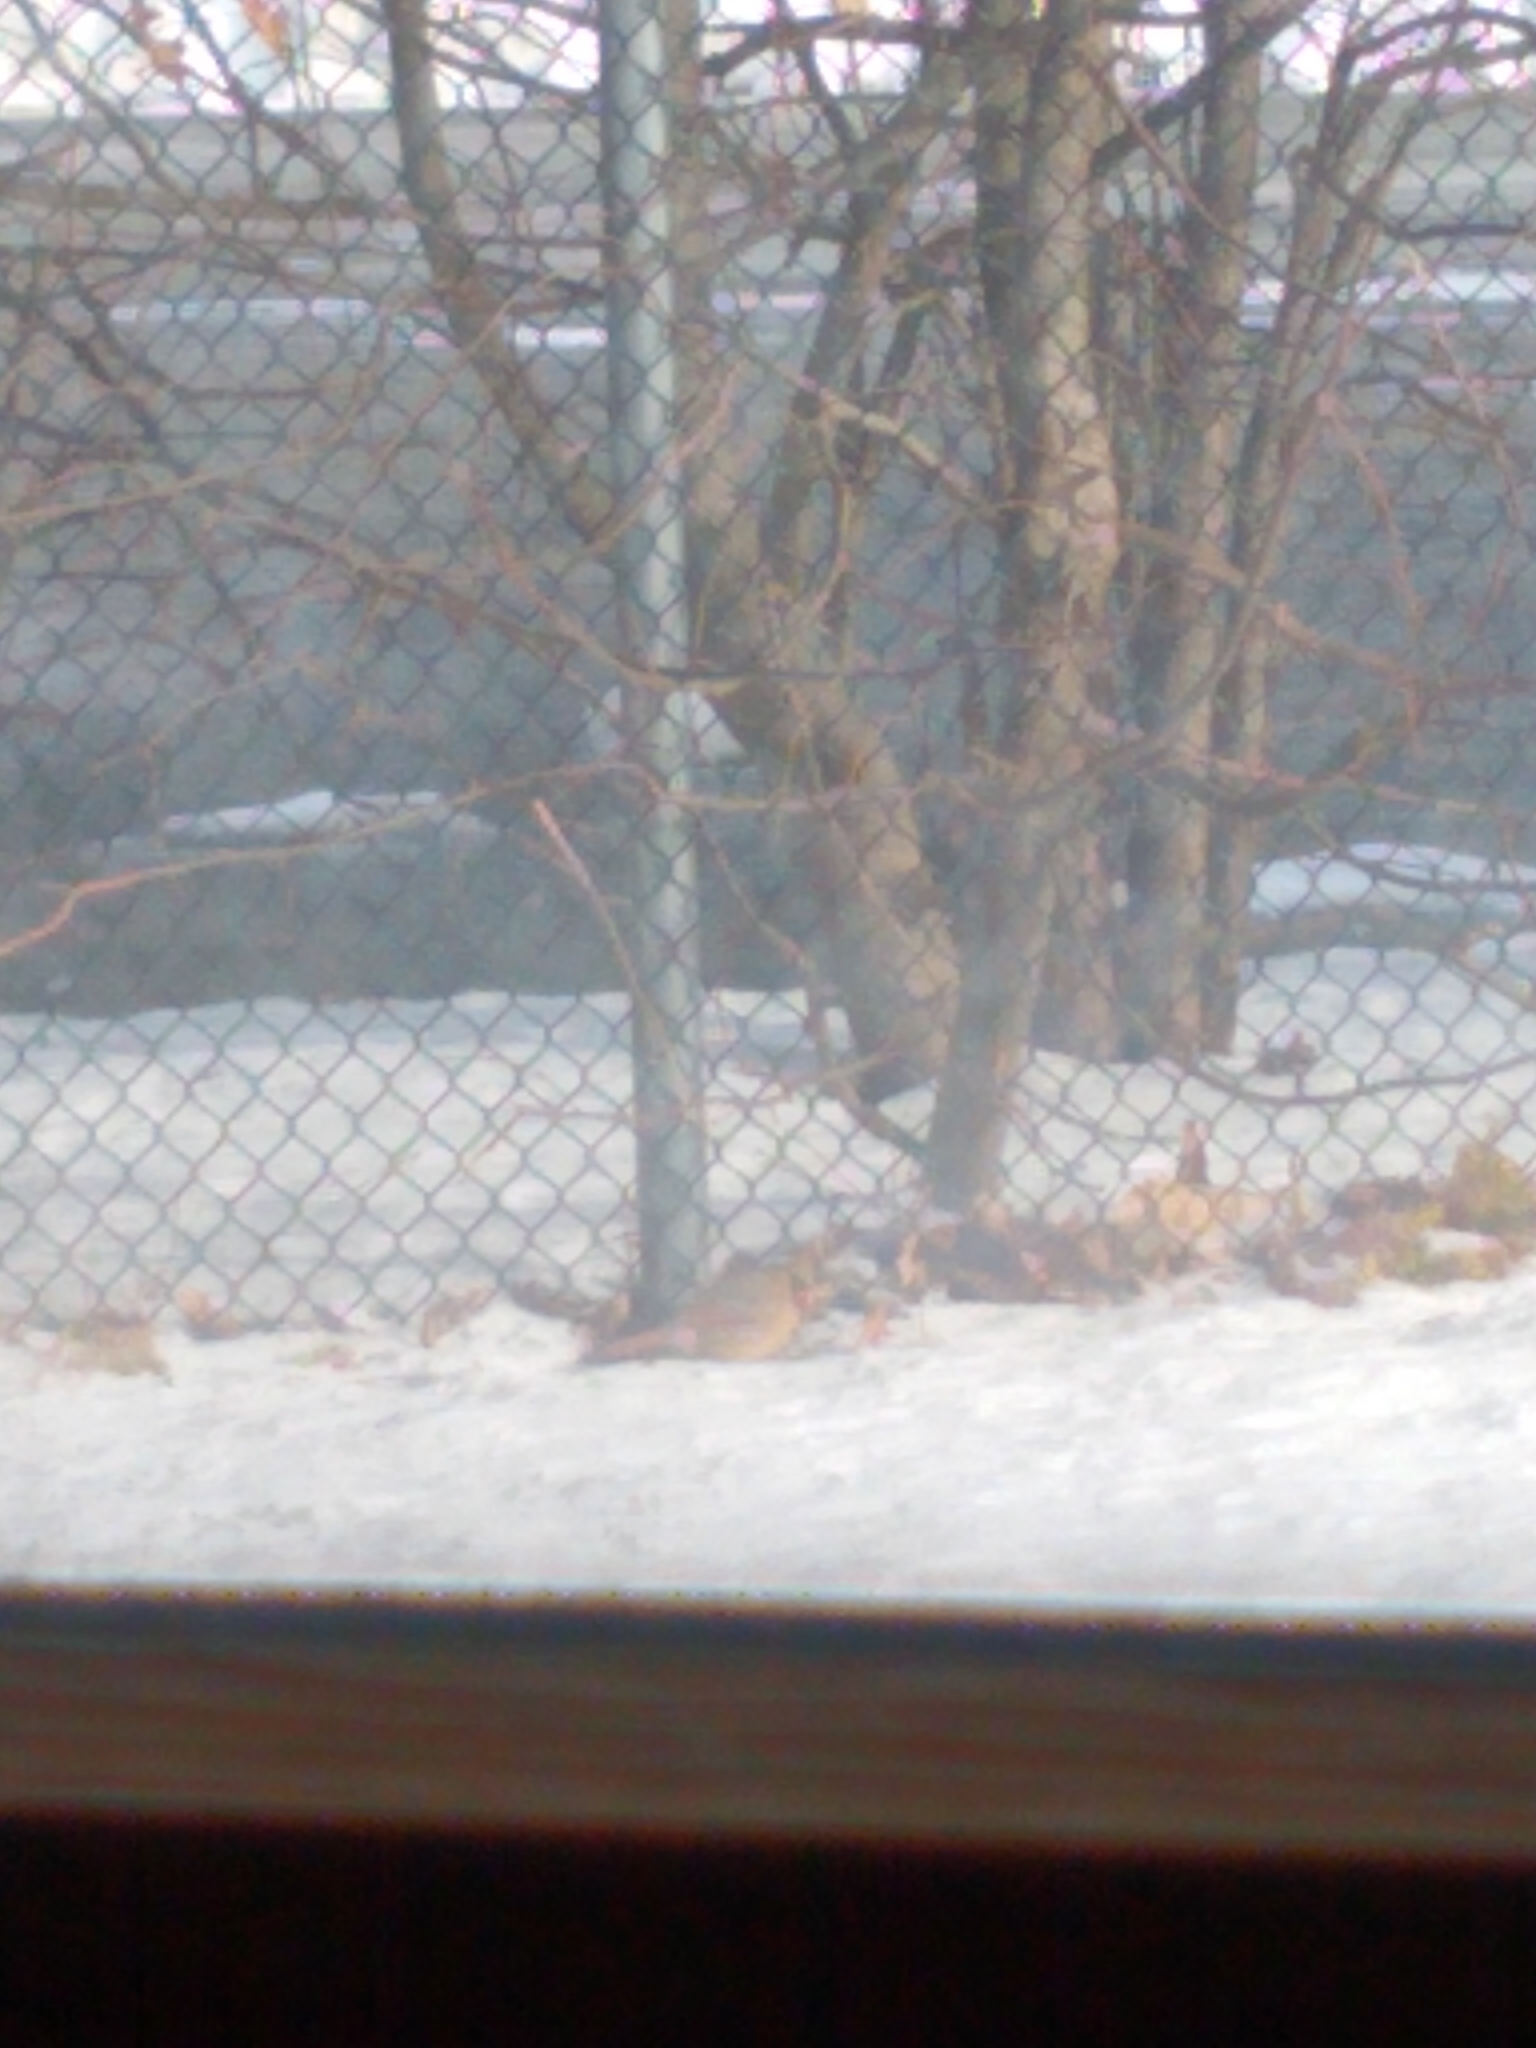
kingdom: Animalia
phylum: Chordata
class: Aves
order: Passeriformes
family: Cardinalidae
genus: Cardinalis
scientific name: Cardinalis cardinalis
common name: Northern cardinal
